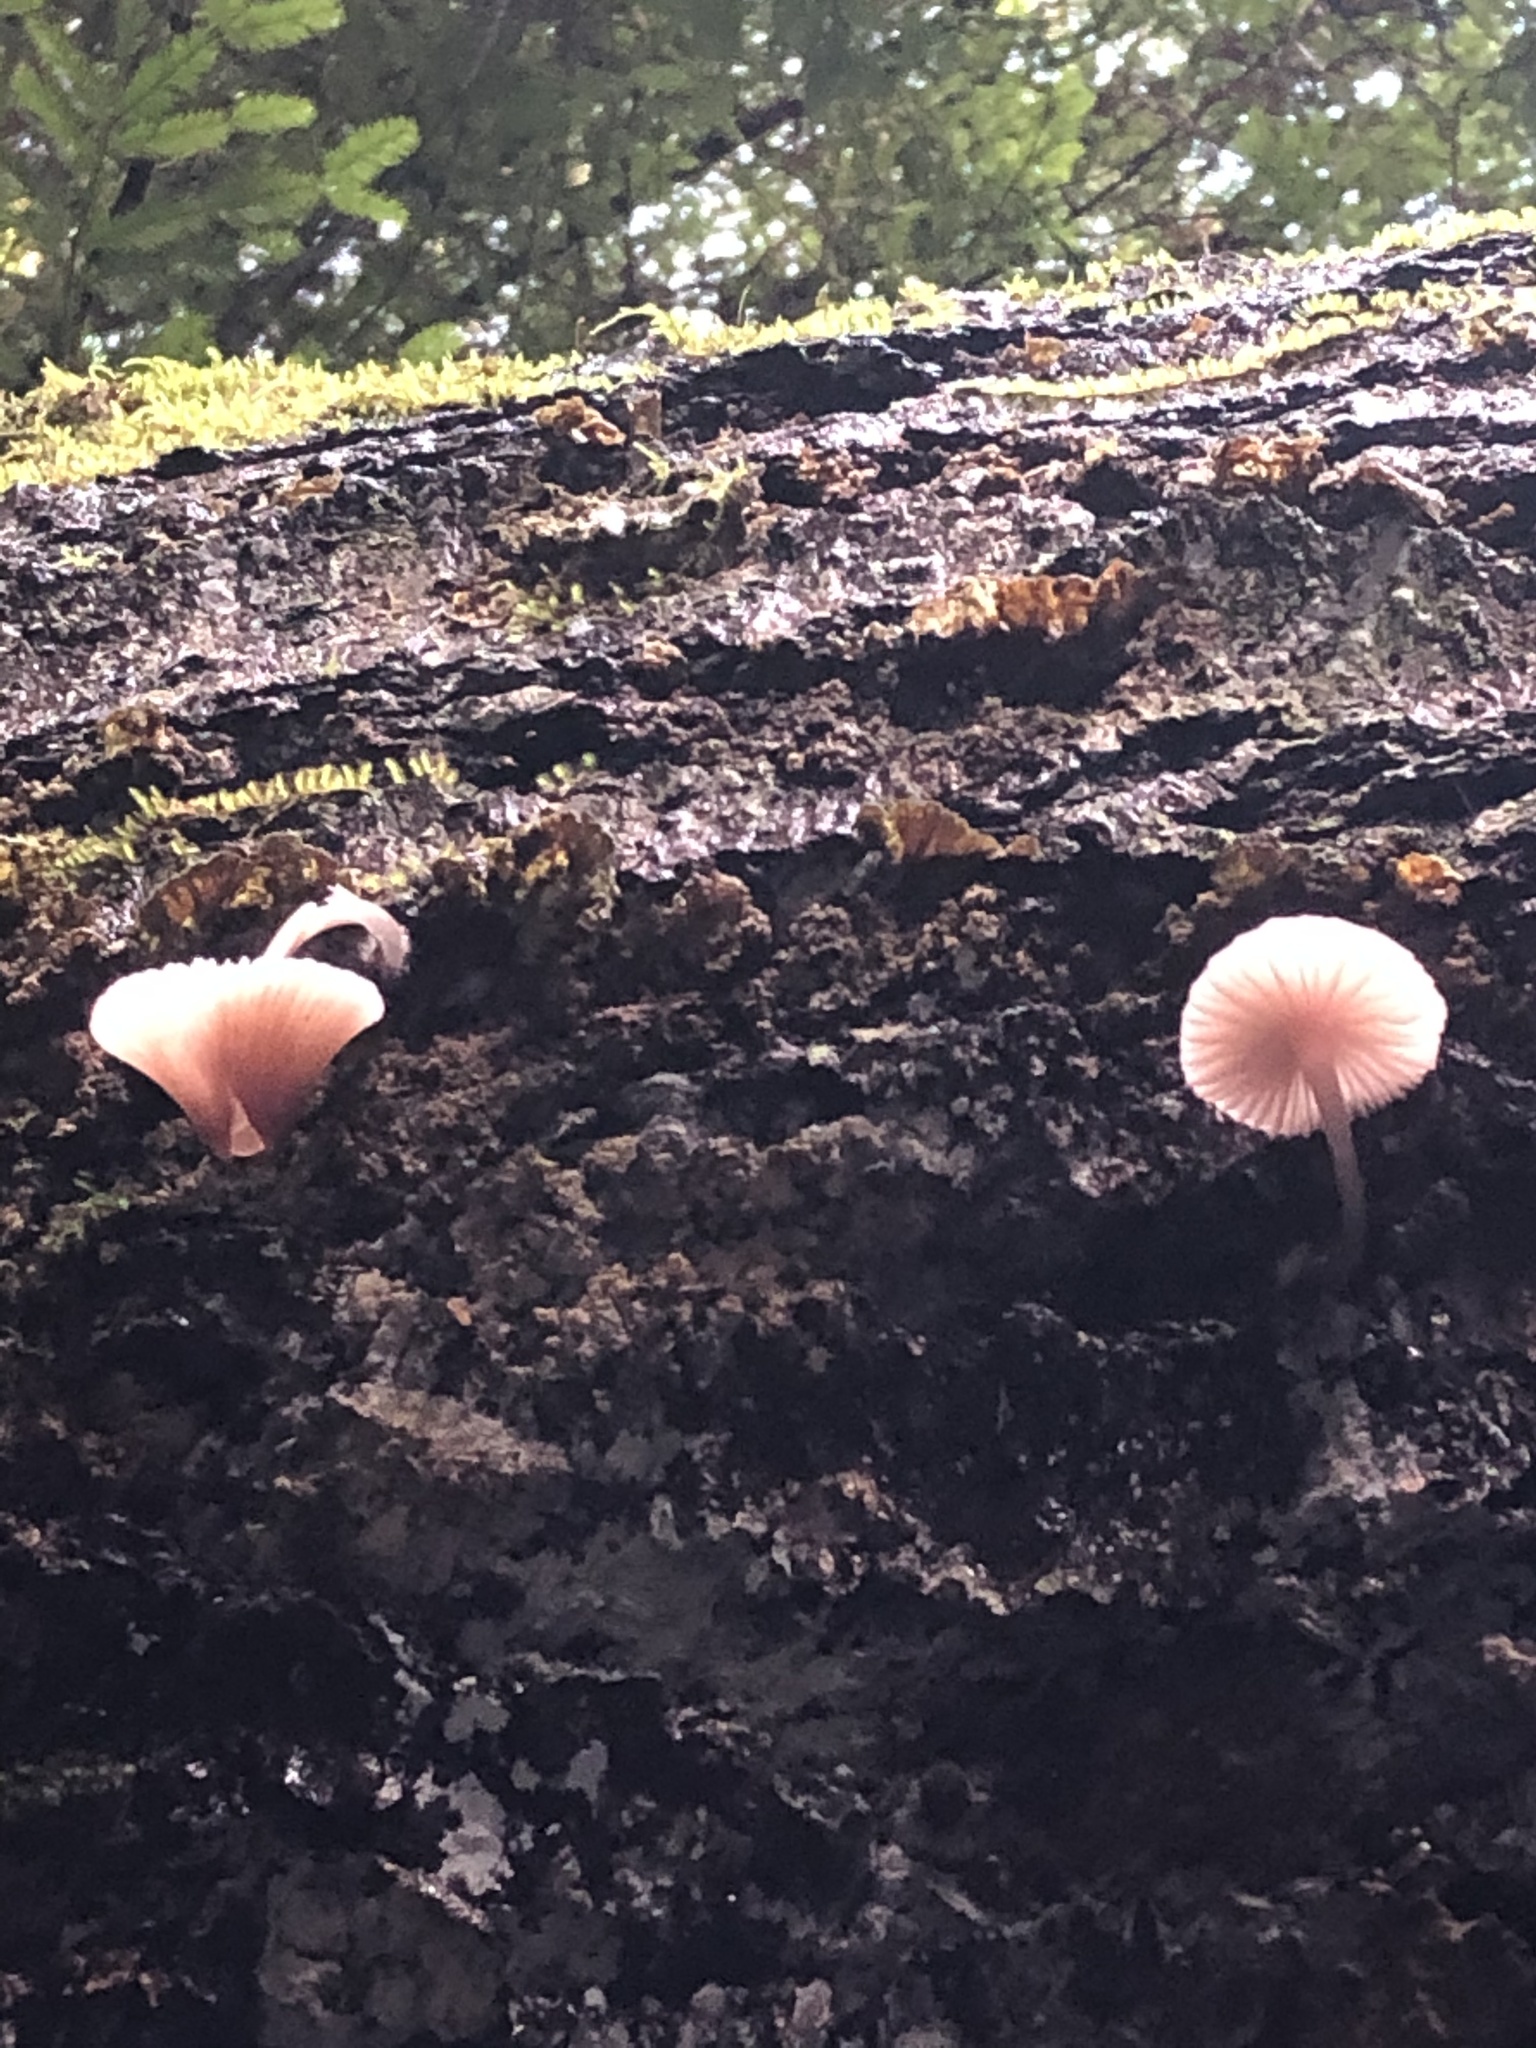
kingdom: Fungi
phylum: Basidiomycota
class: Agaricomycetes
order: Agaricales
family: Mycenaceae
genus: Mycena
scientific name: Mycena haematopus
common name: Burgundydrop bonnet
